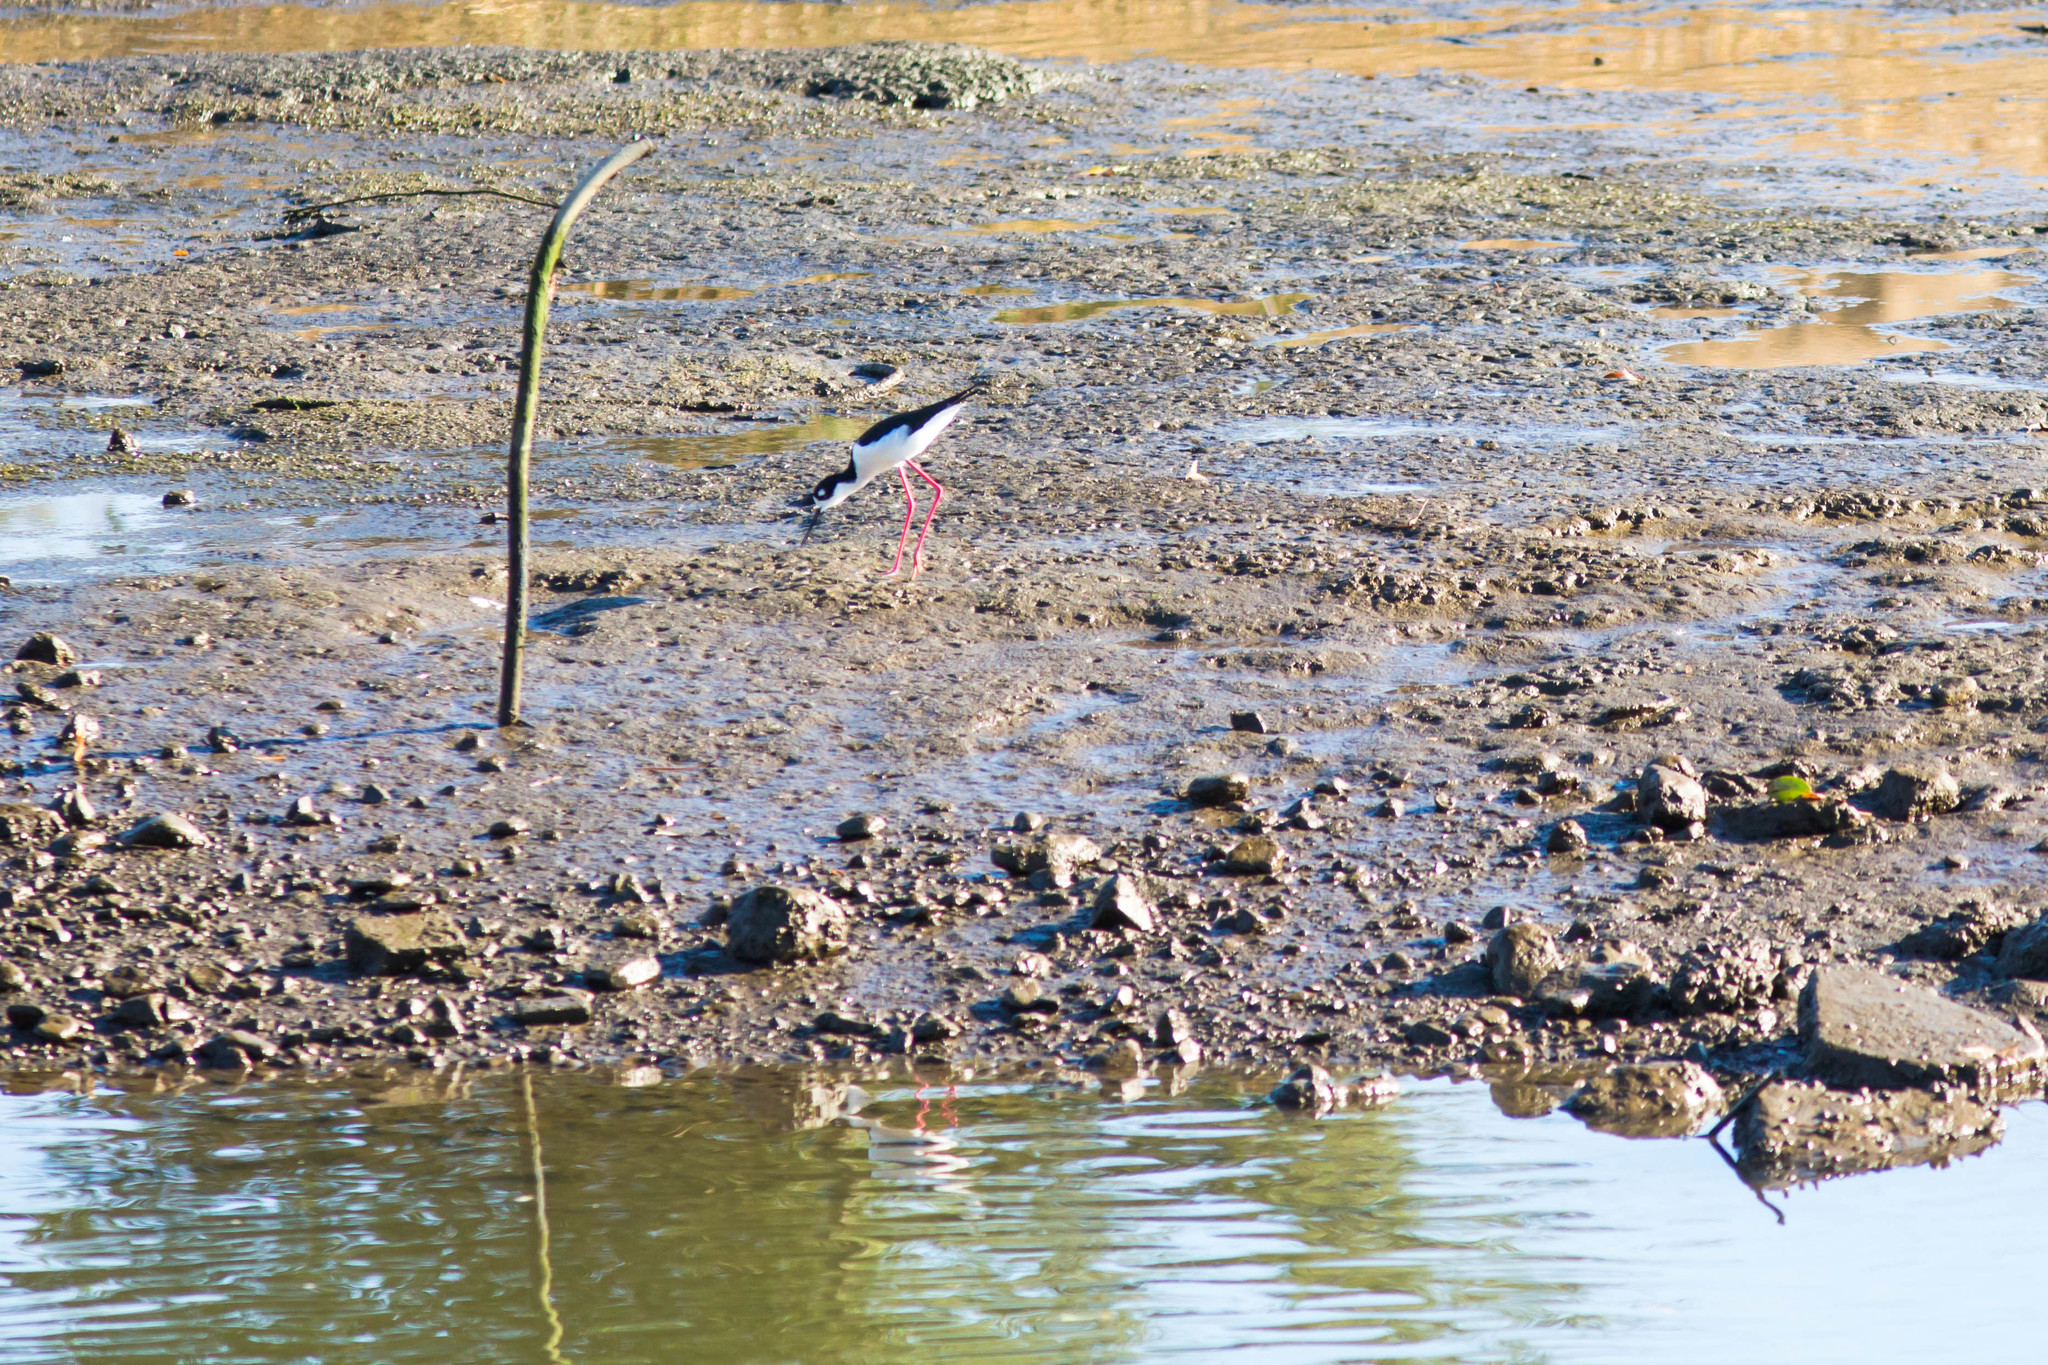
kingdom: Animalia
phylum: Chordata
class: Aves
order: Charadriiformes
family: Recurvirostridae
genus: Himantopus
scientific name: Himantopus mexicanus
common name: Black-necked stilt
